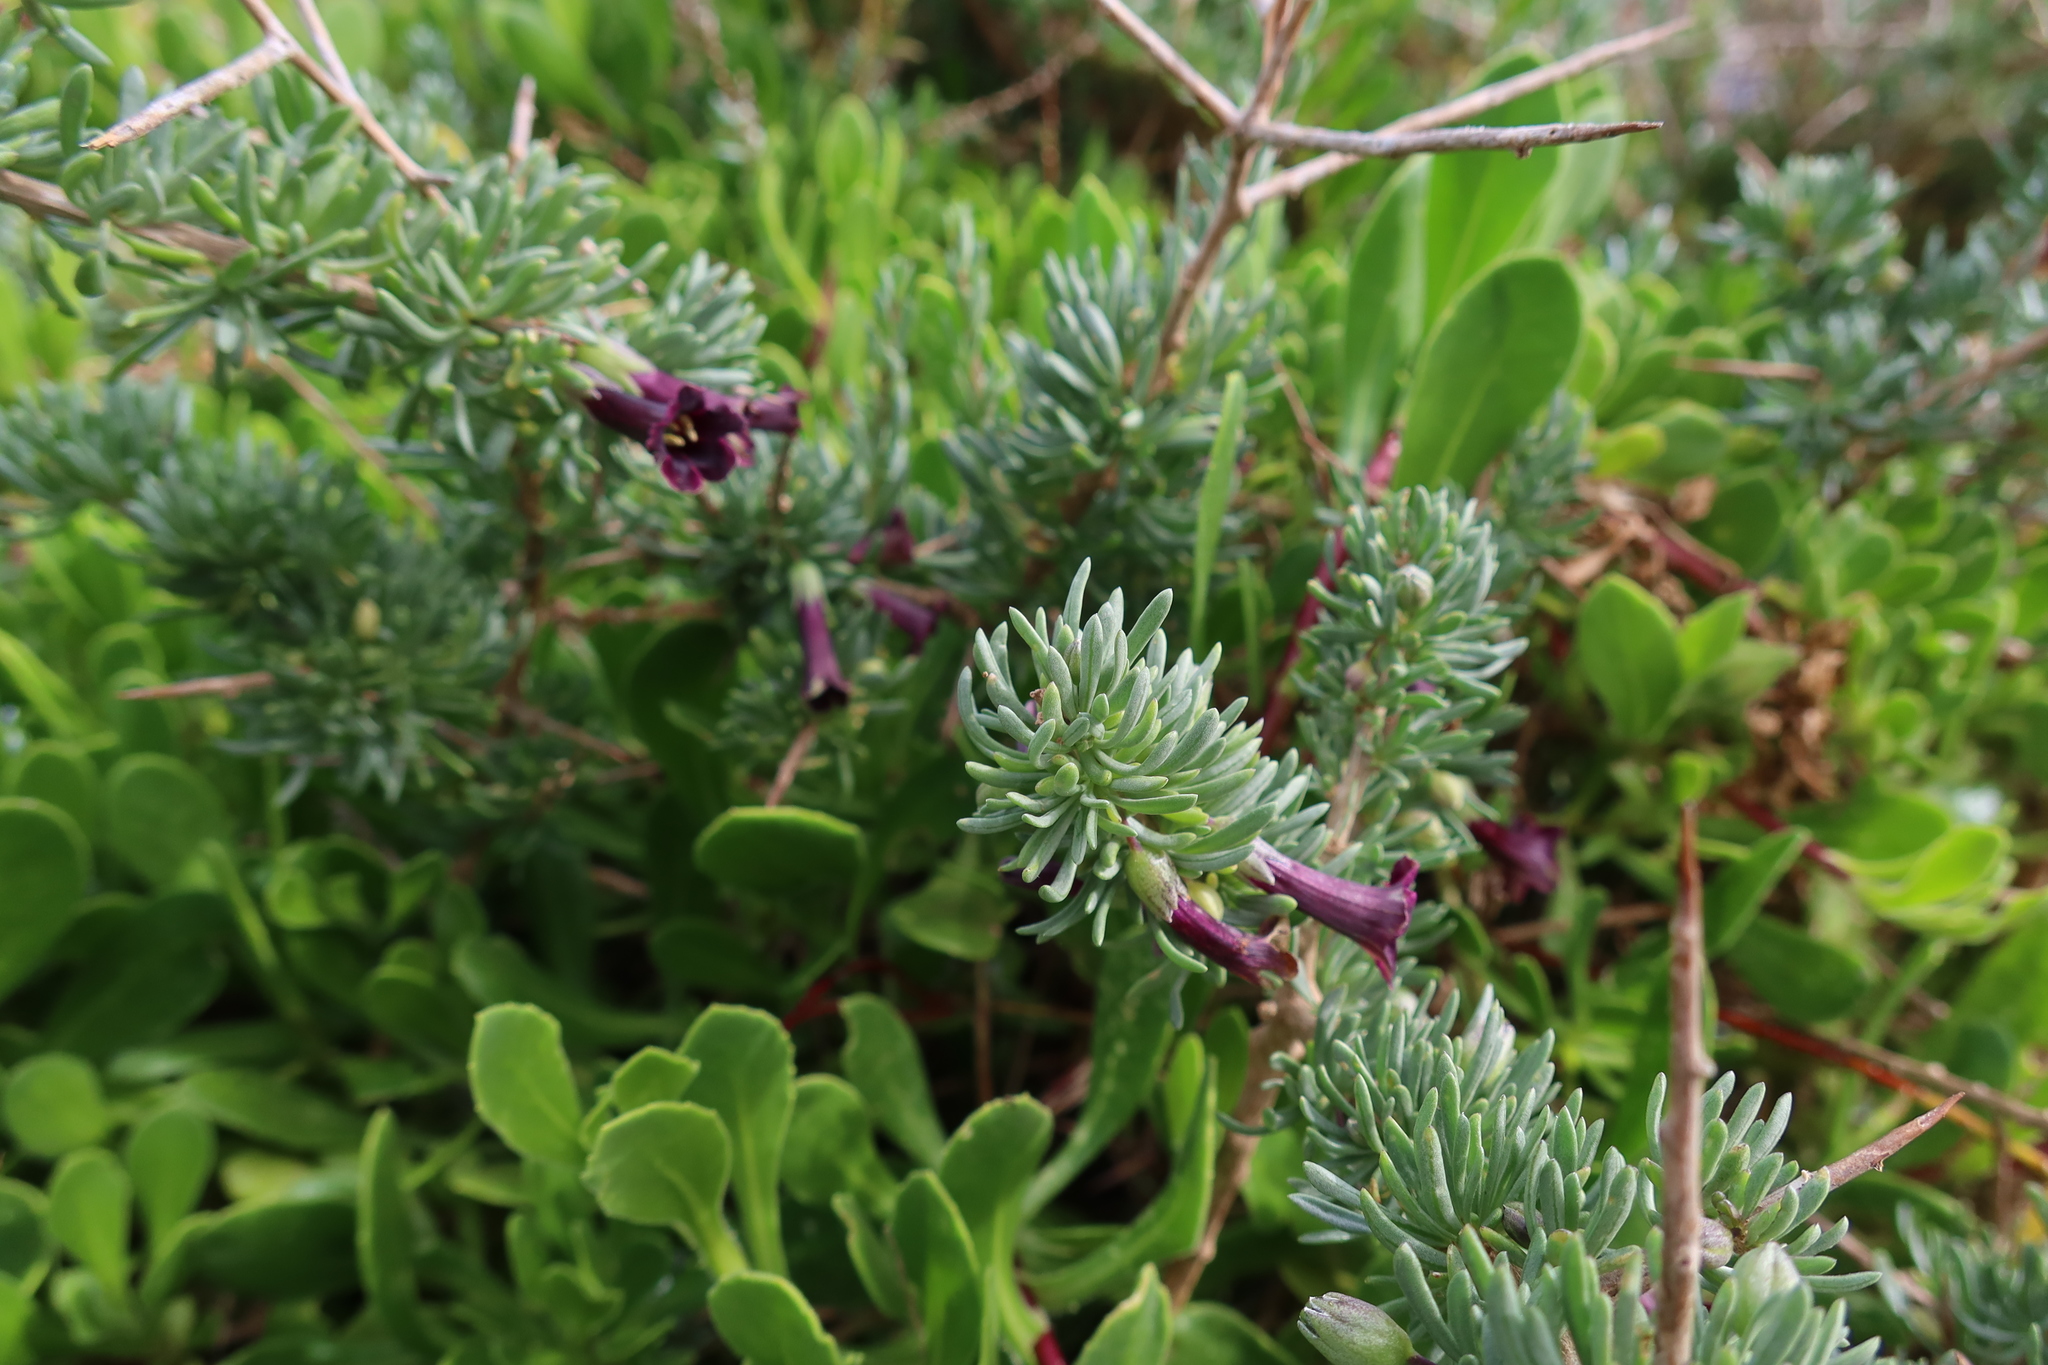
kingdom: Plantae
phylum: Tracheophyta
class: Magnoliopsida
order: Solanales
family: Solanaceae
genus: Lycium
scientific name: Lycium afrum
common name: Kaffir boxthorn
